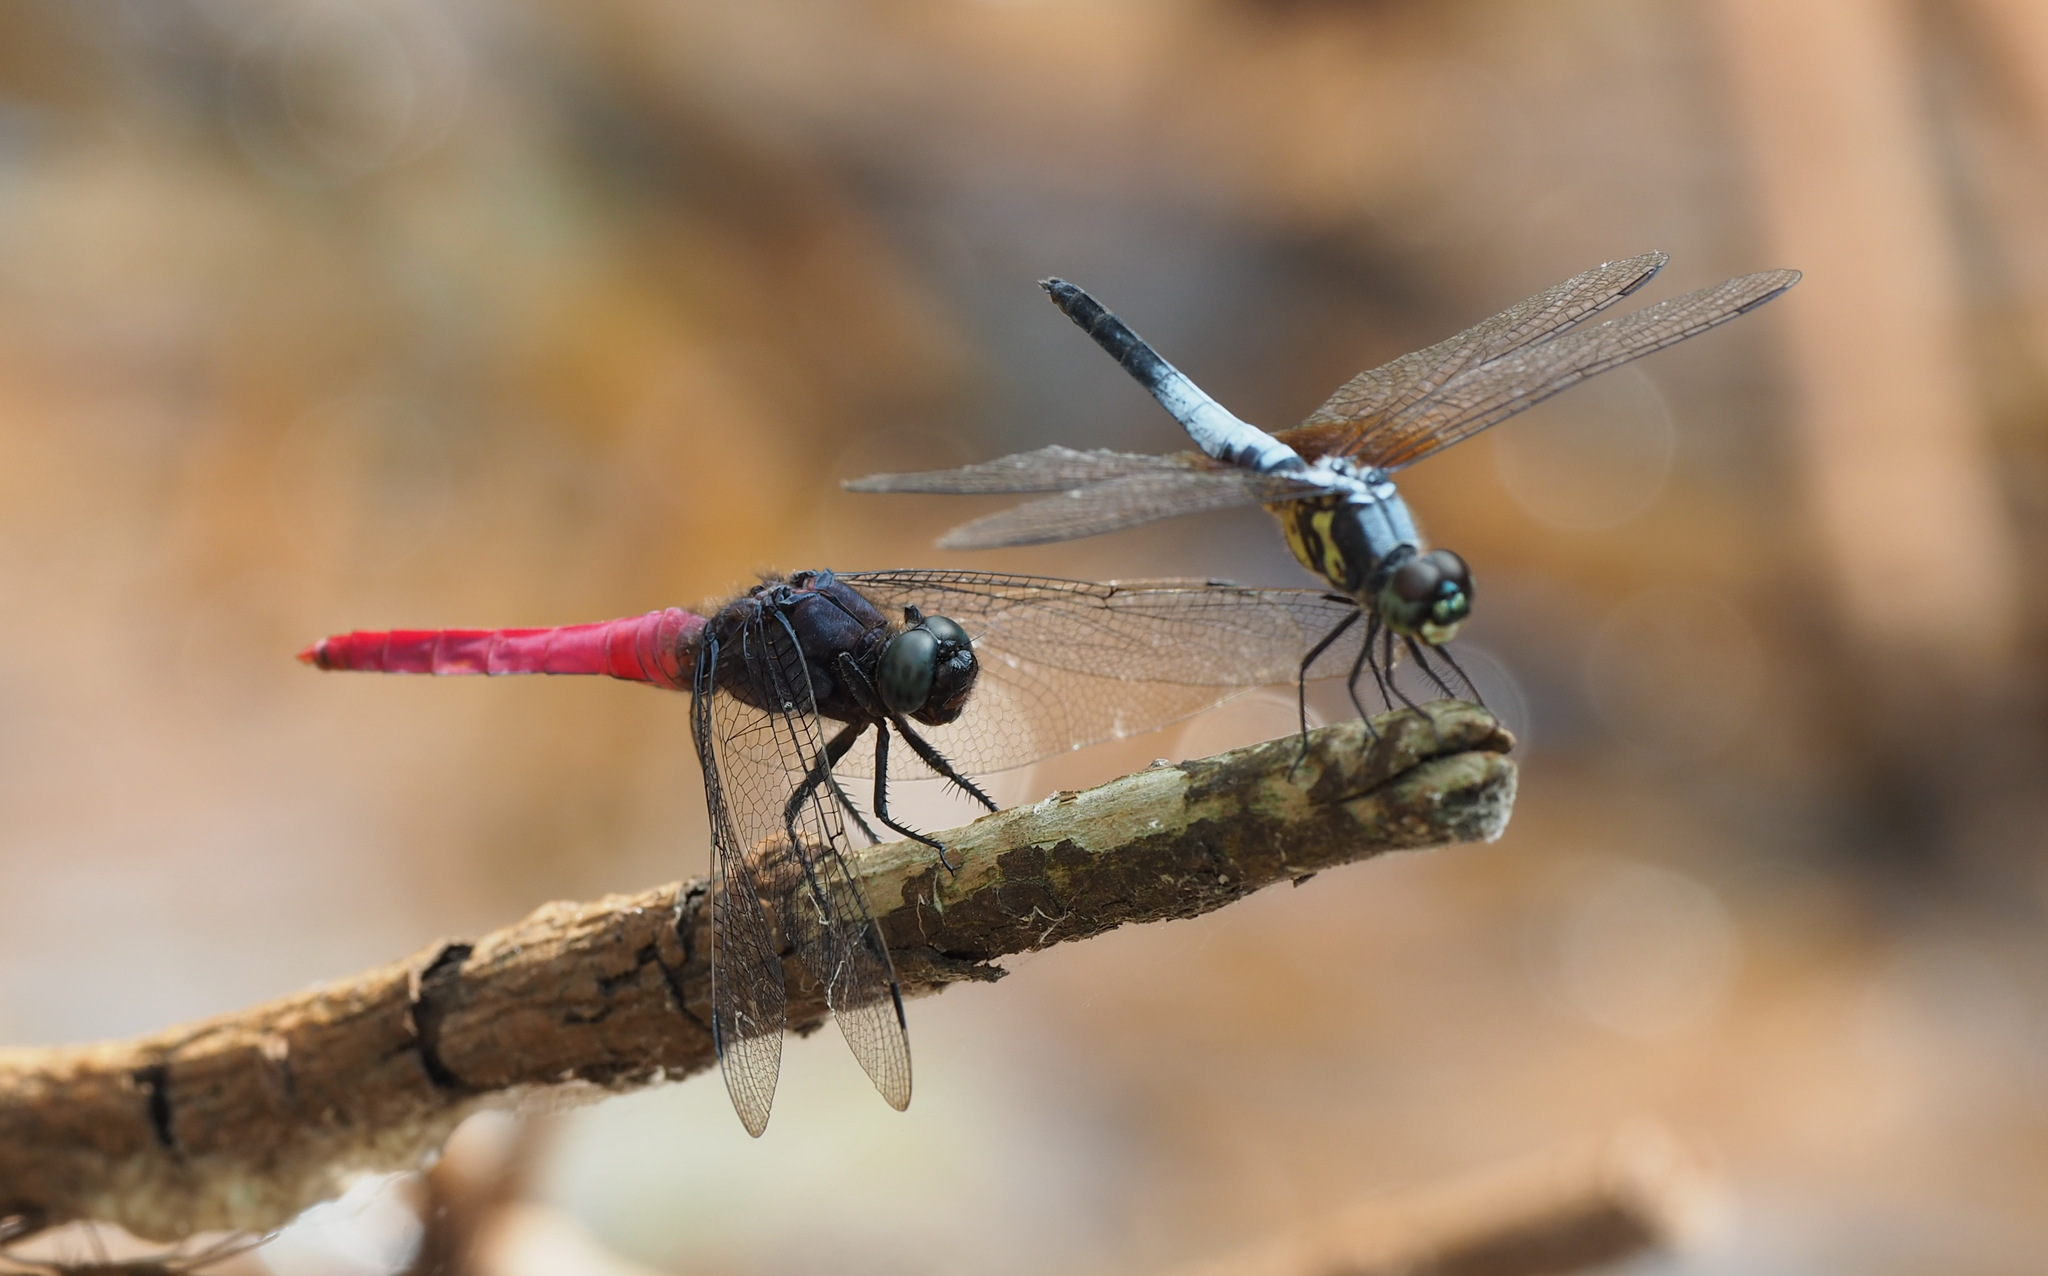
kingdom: Animalia
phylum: Arthropoda
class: Insecta
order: Odonata
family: Libellulidae
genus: Orthetrum
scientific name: Orthetrum pruinosum
